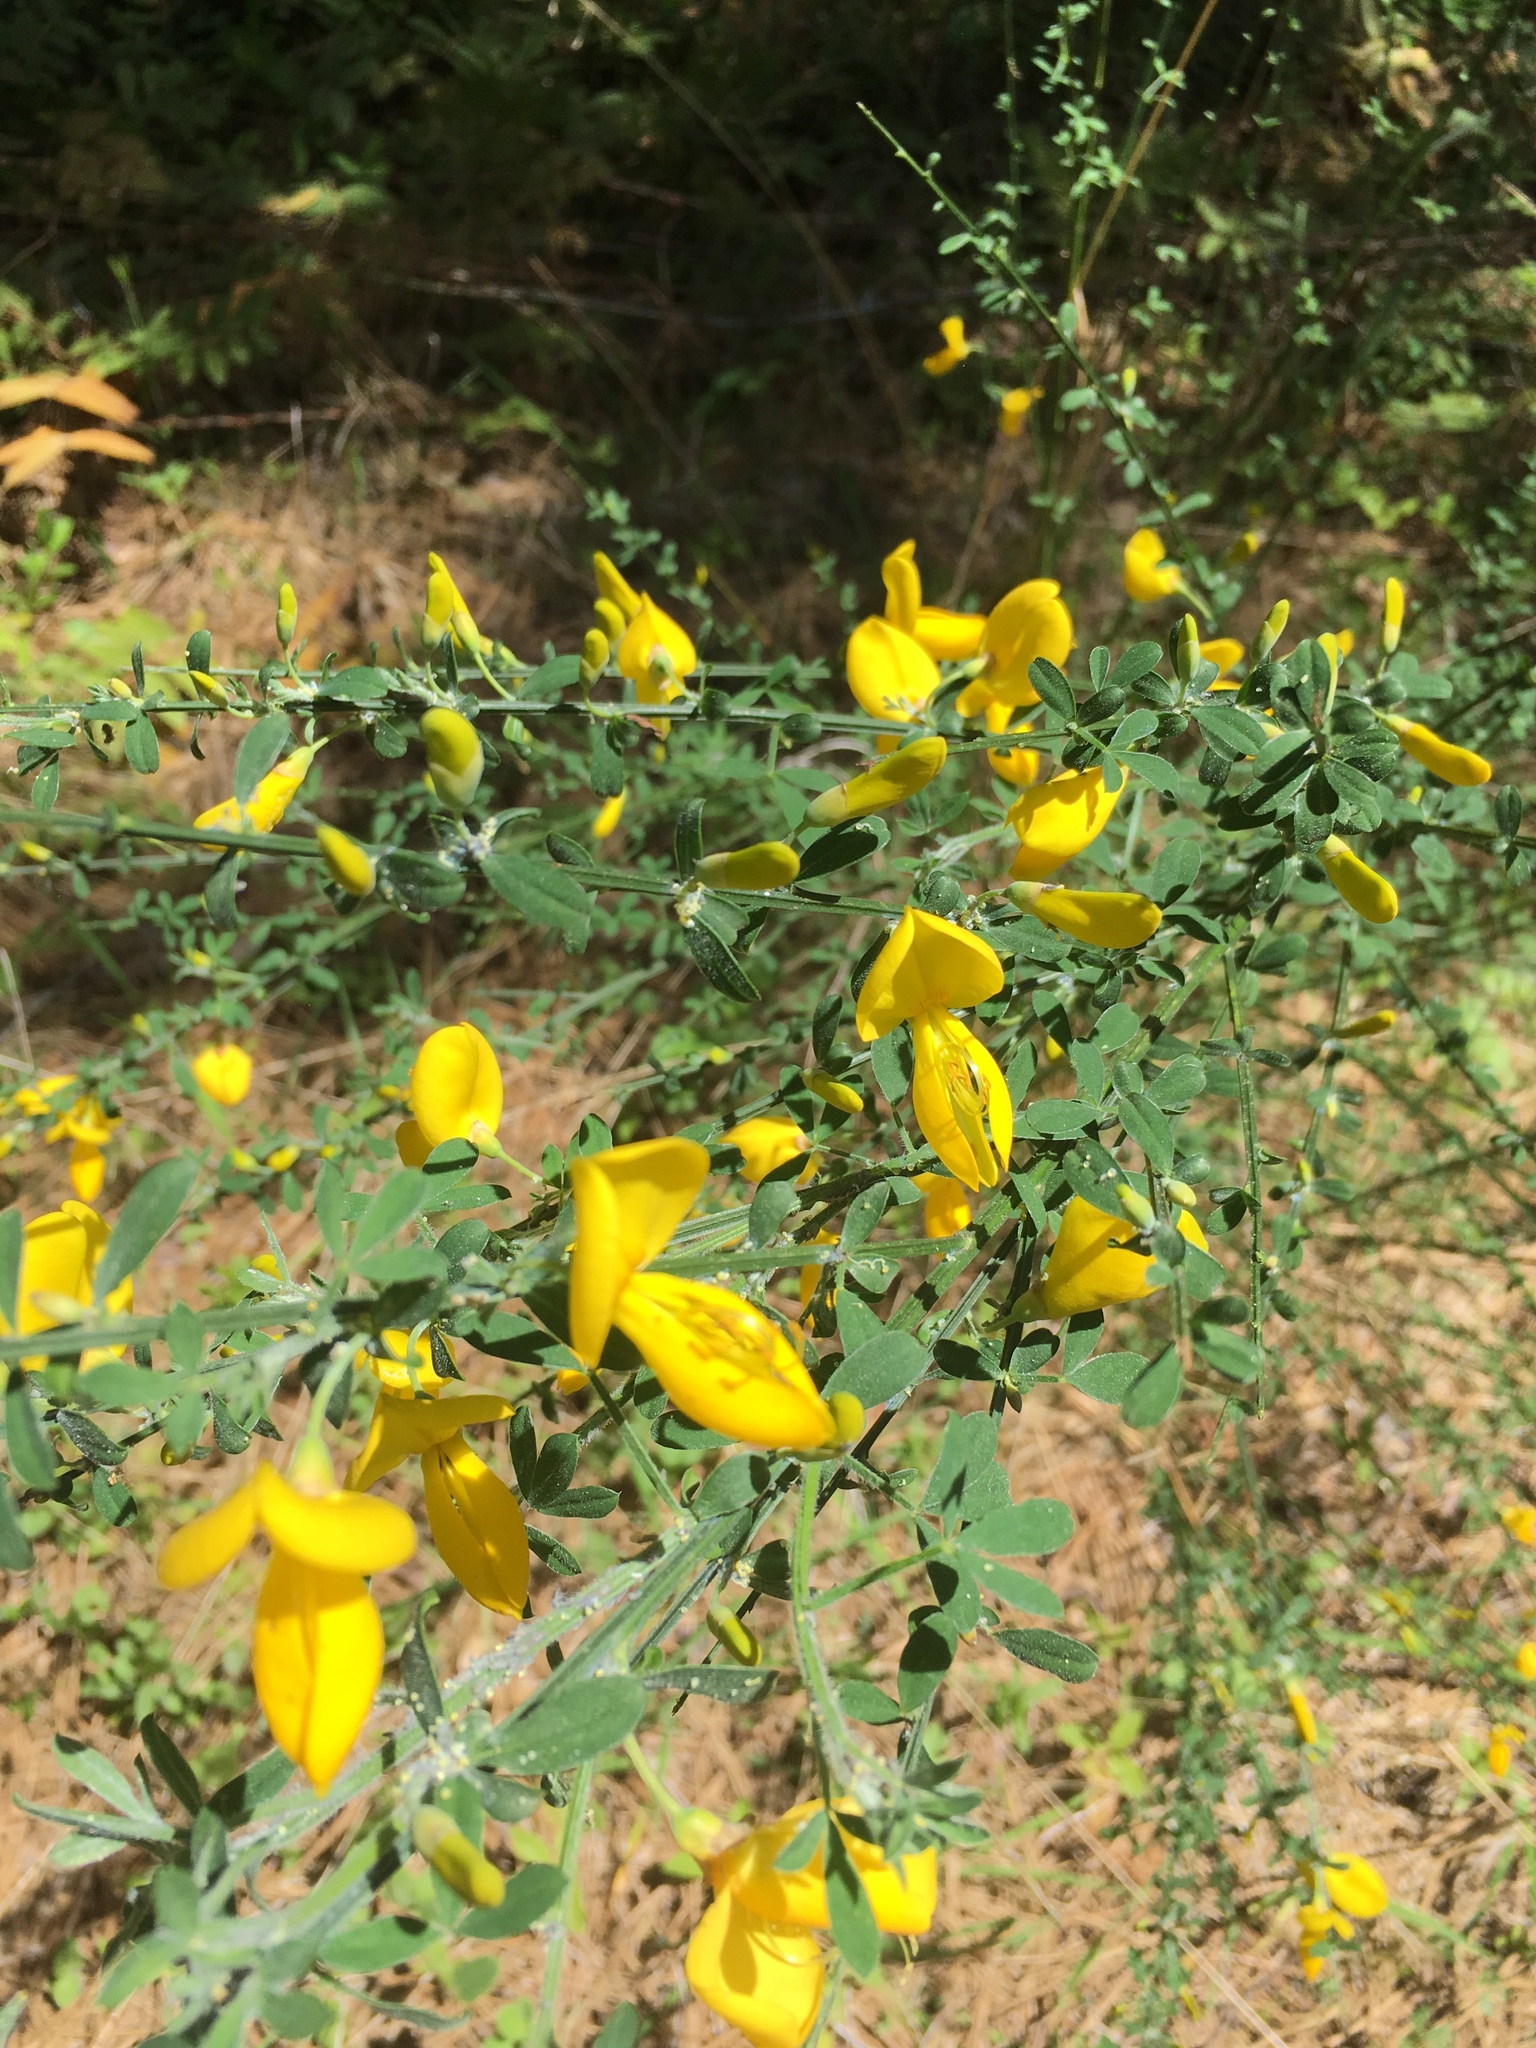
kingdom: Plantae
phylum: Tracheophyta
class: Magnoliopsida
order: Fabales
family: Fabaceae
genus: Cytisus
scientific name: Cytisus scoparius
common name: Scotch broom
